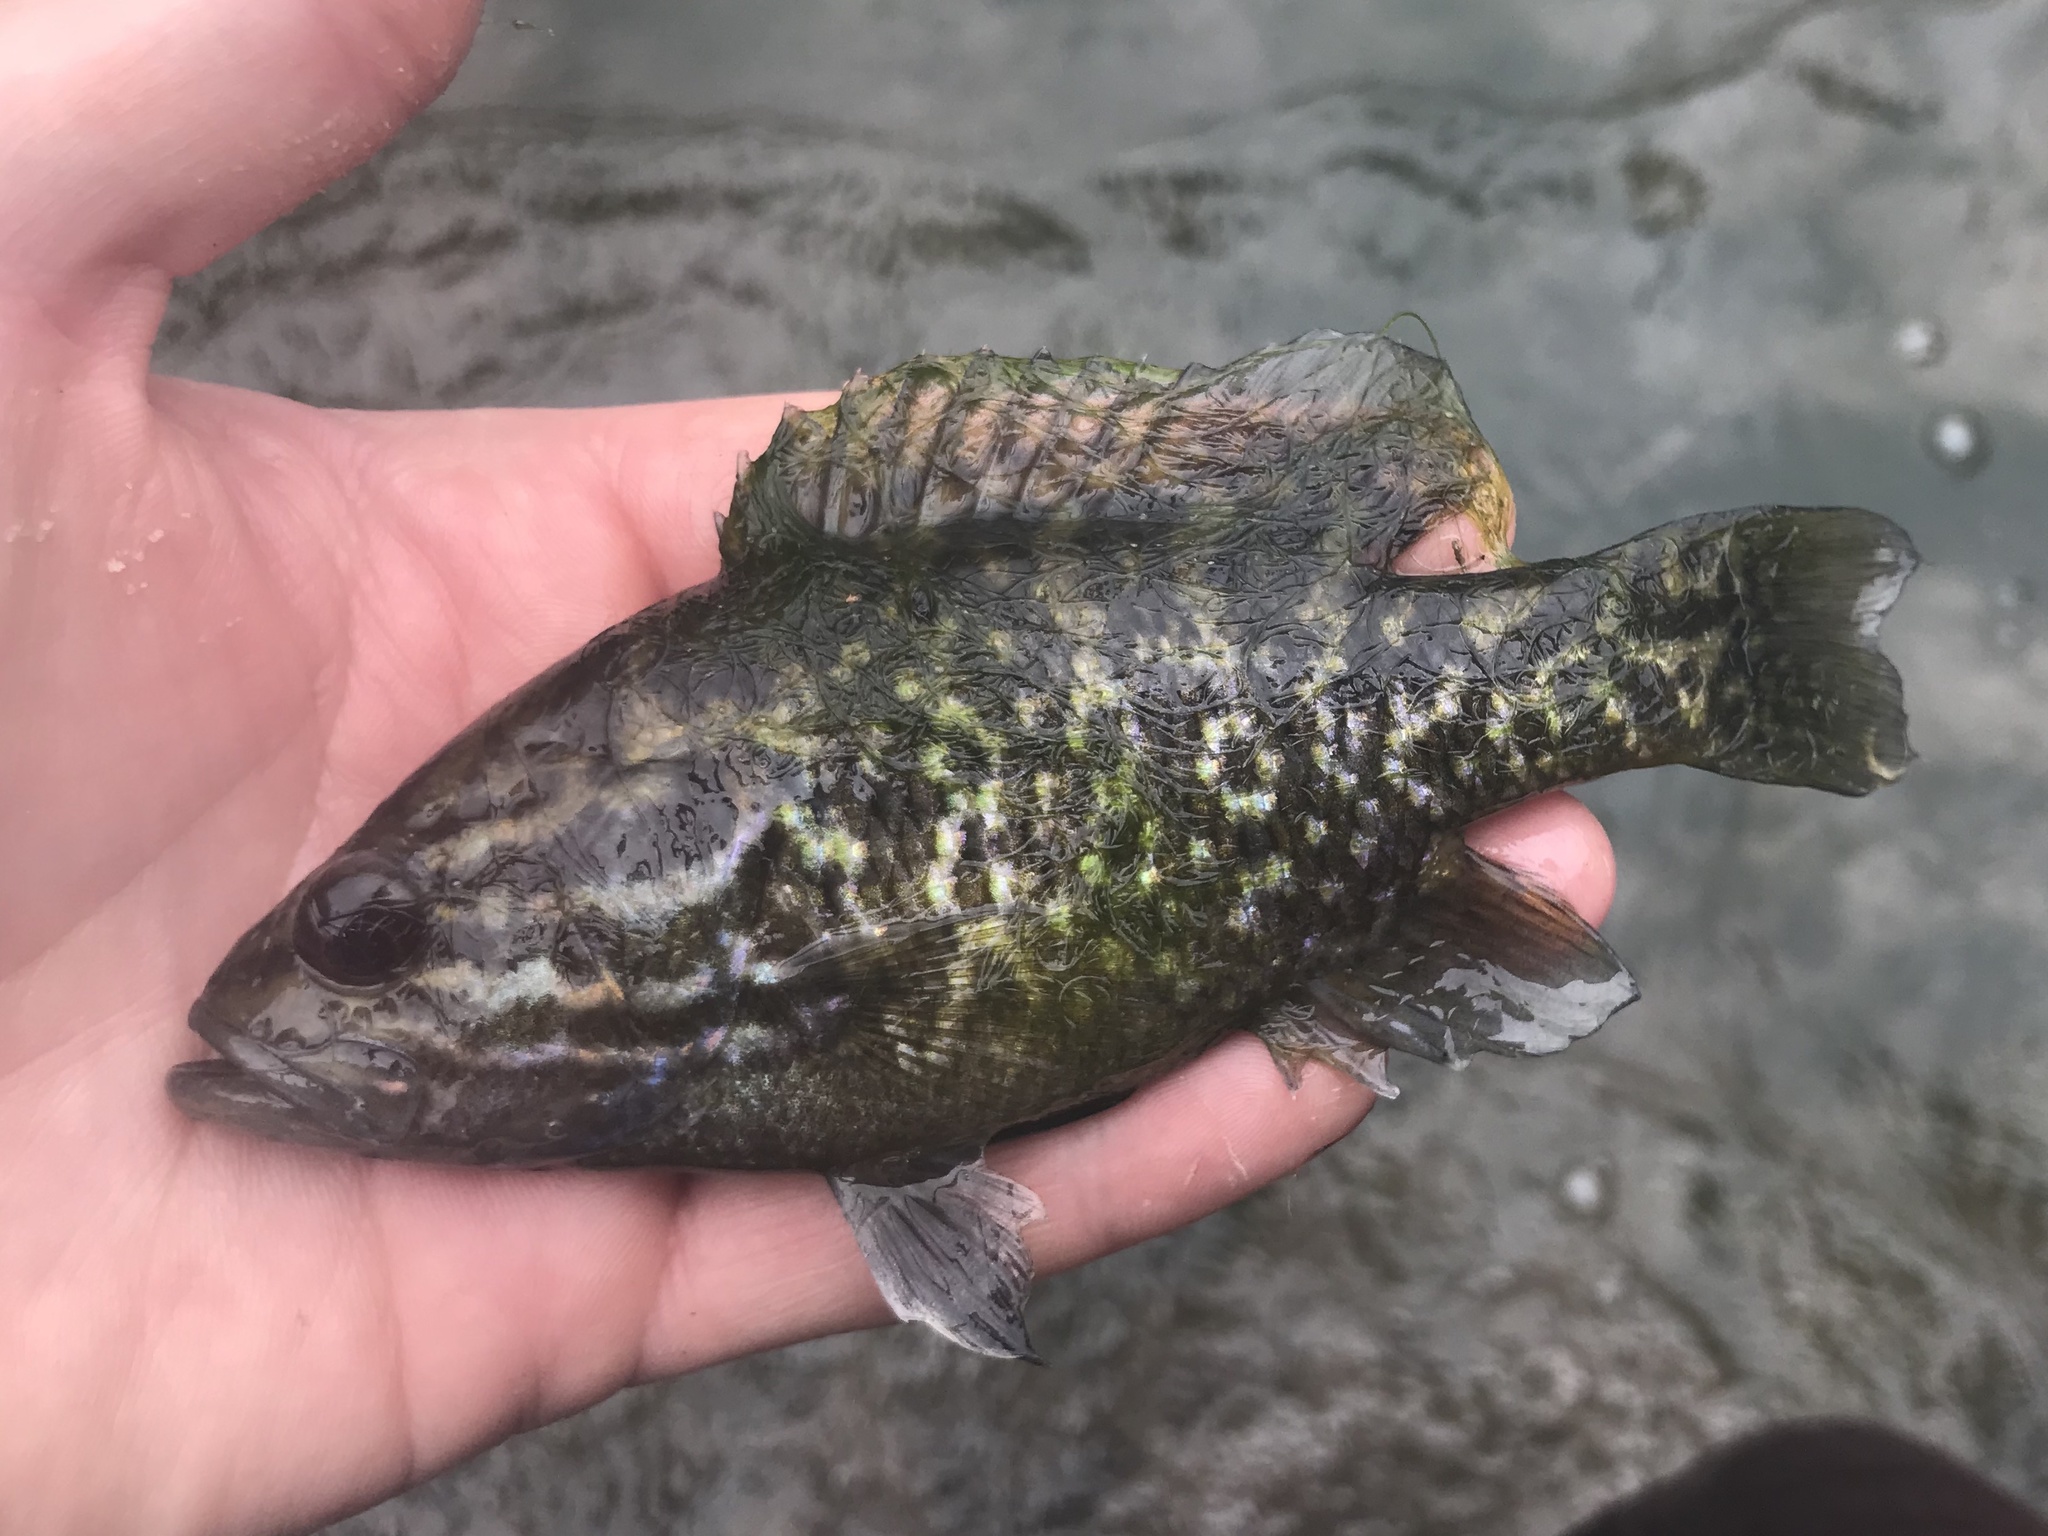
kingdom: Animalia
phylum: Chordata
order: Perciformes
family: Centrarchidae
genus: Lepomis
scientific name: Lepomis gulosus
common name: Warmouth
